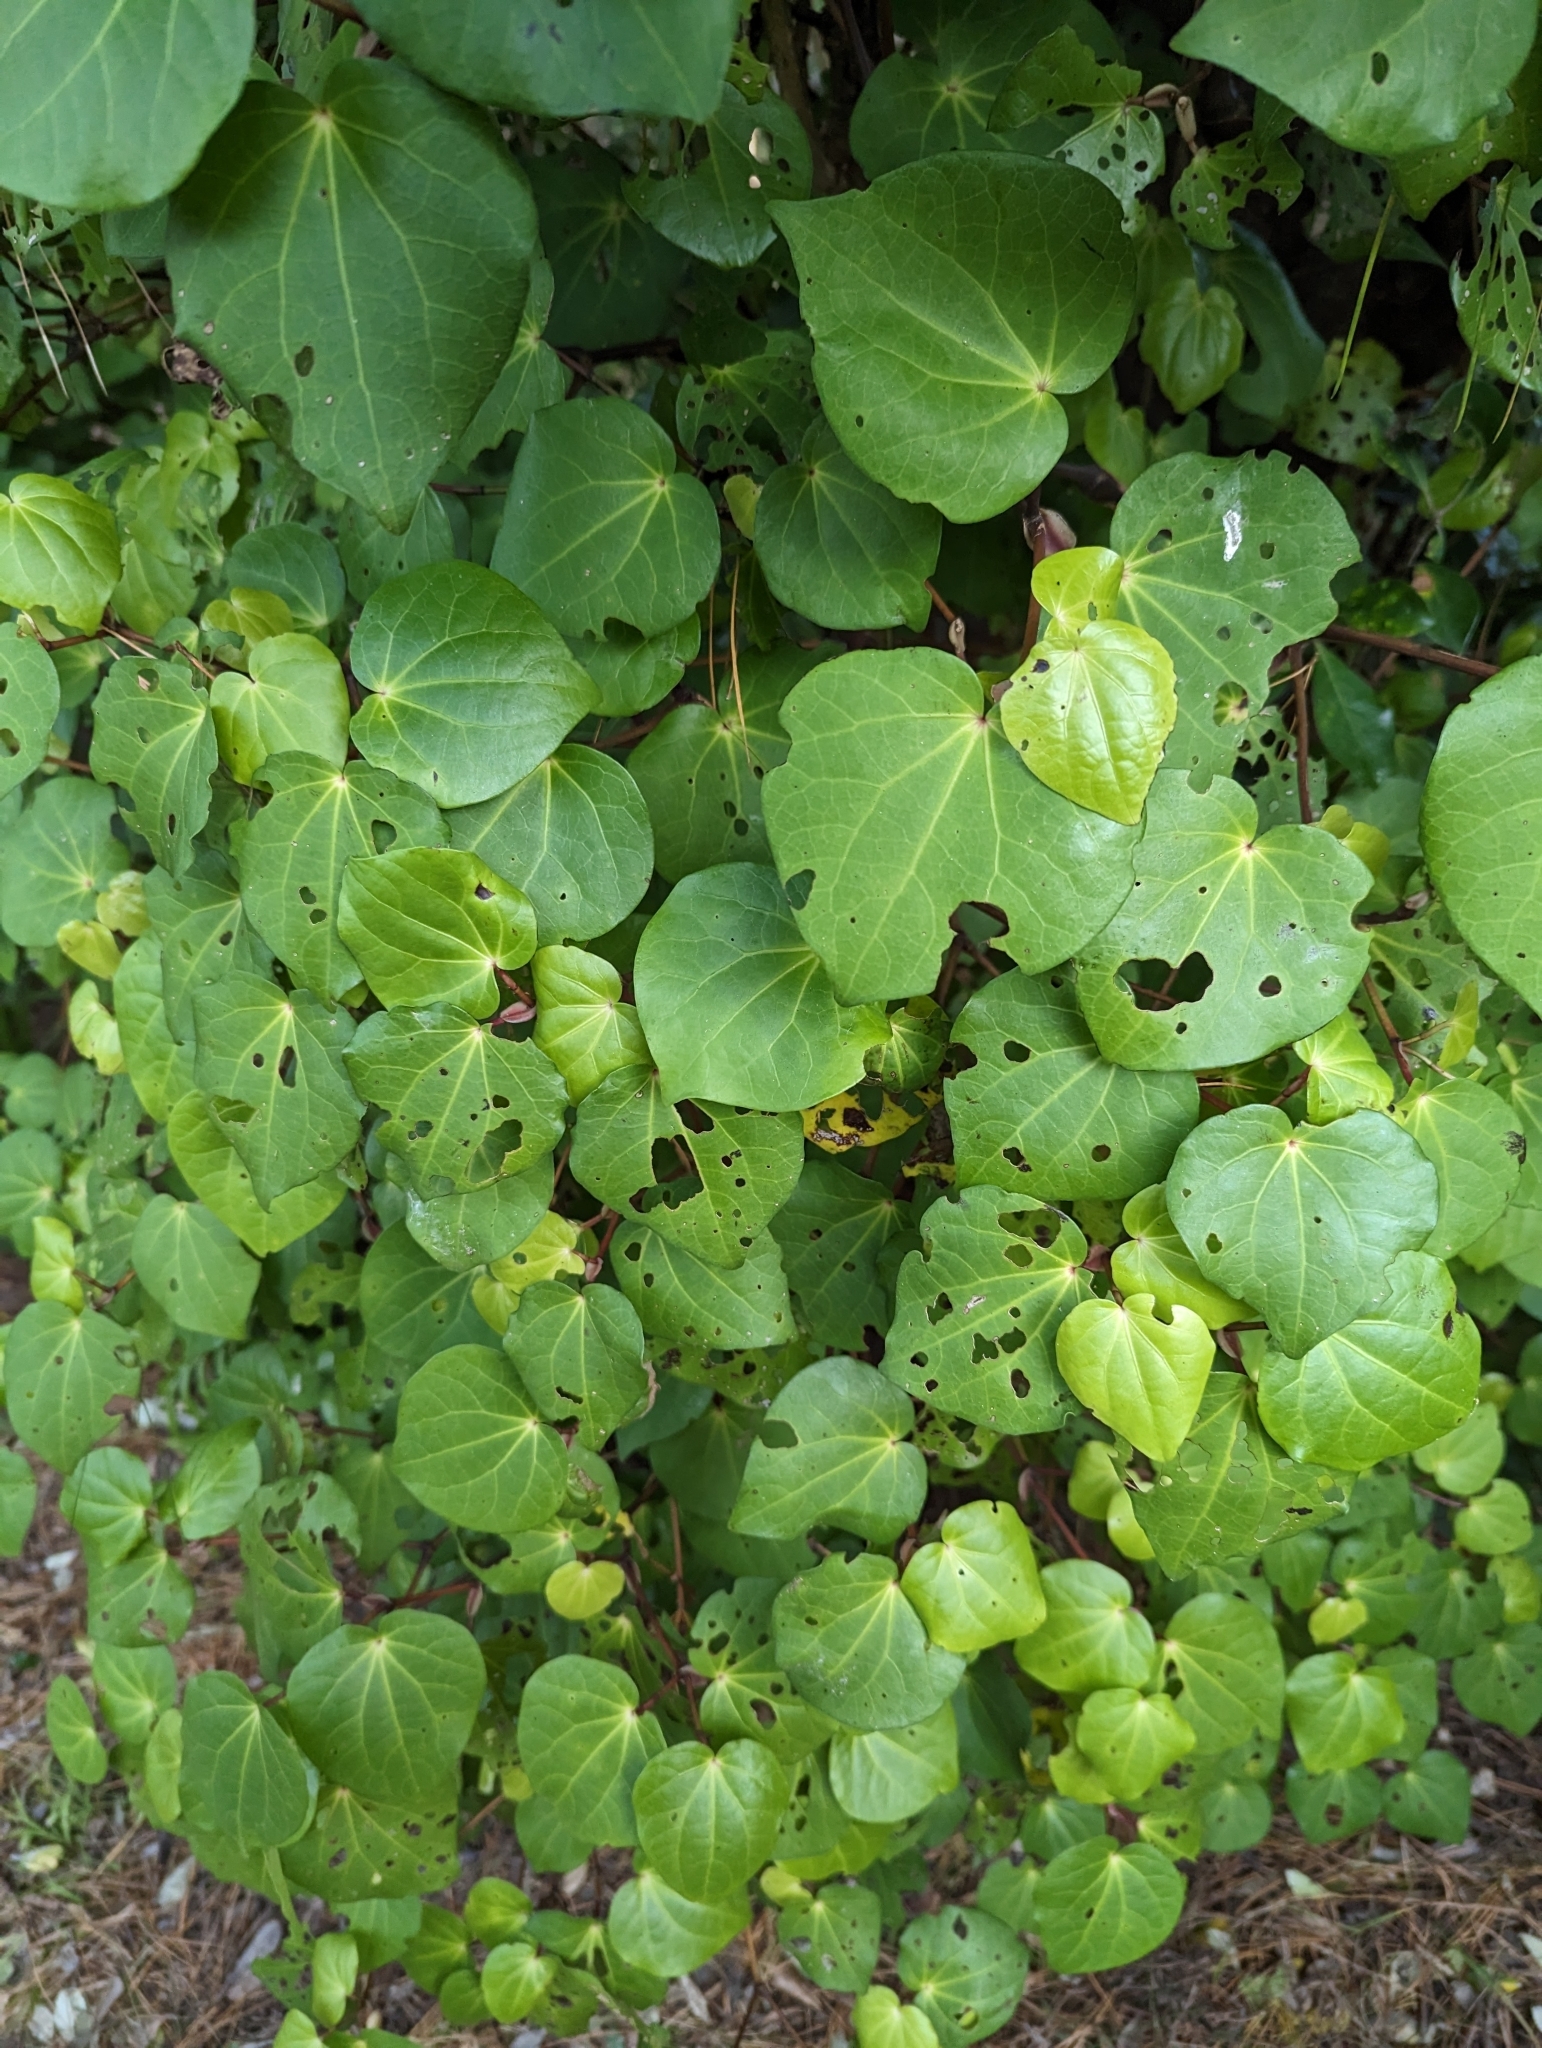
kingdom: Plantae
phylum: Tracheophyta
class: Magnoliopsida
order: Piperales
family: Piperaceae
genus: Macropiper
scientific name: Macropiper excelsum
